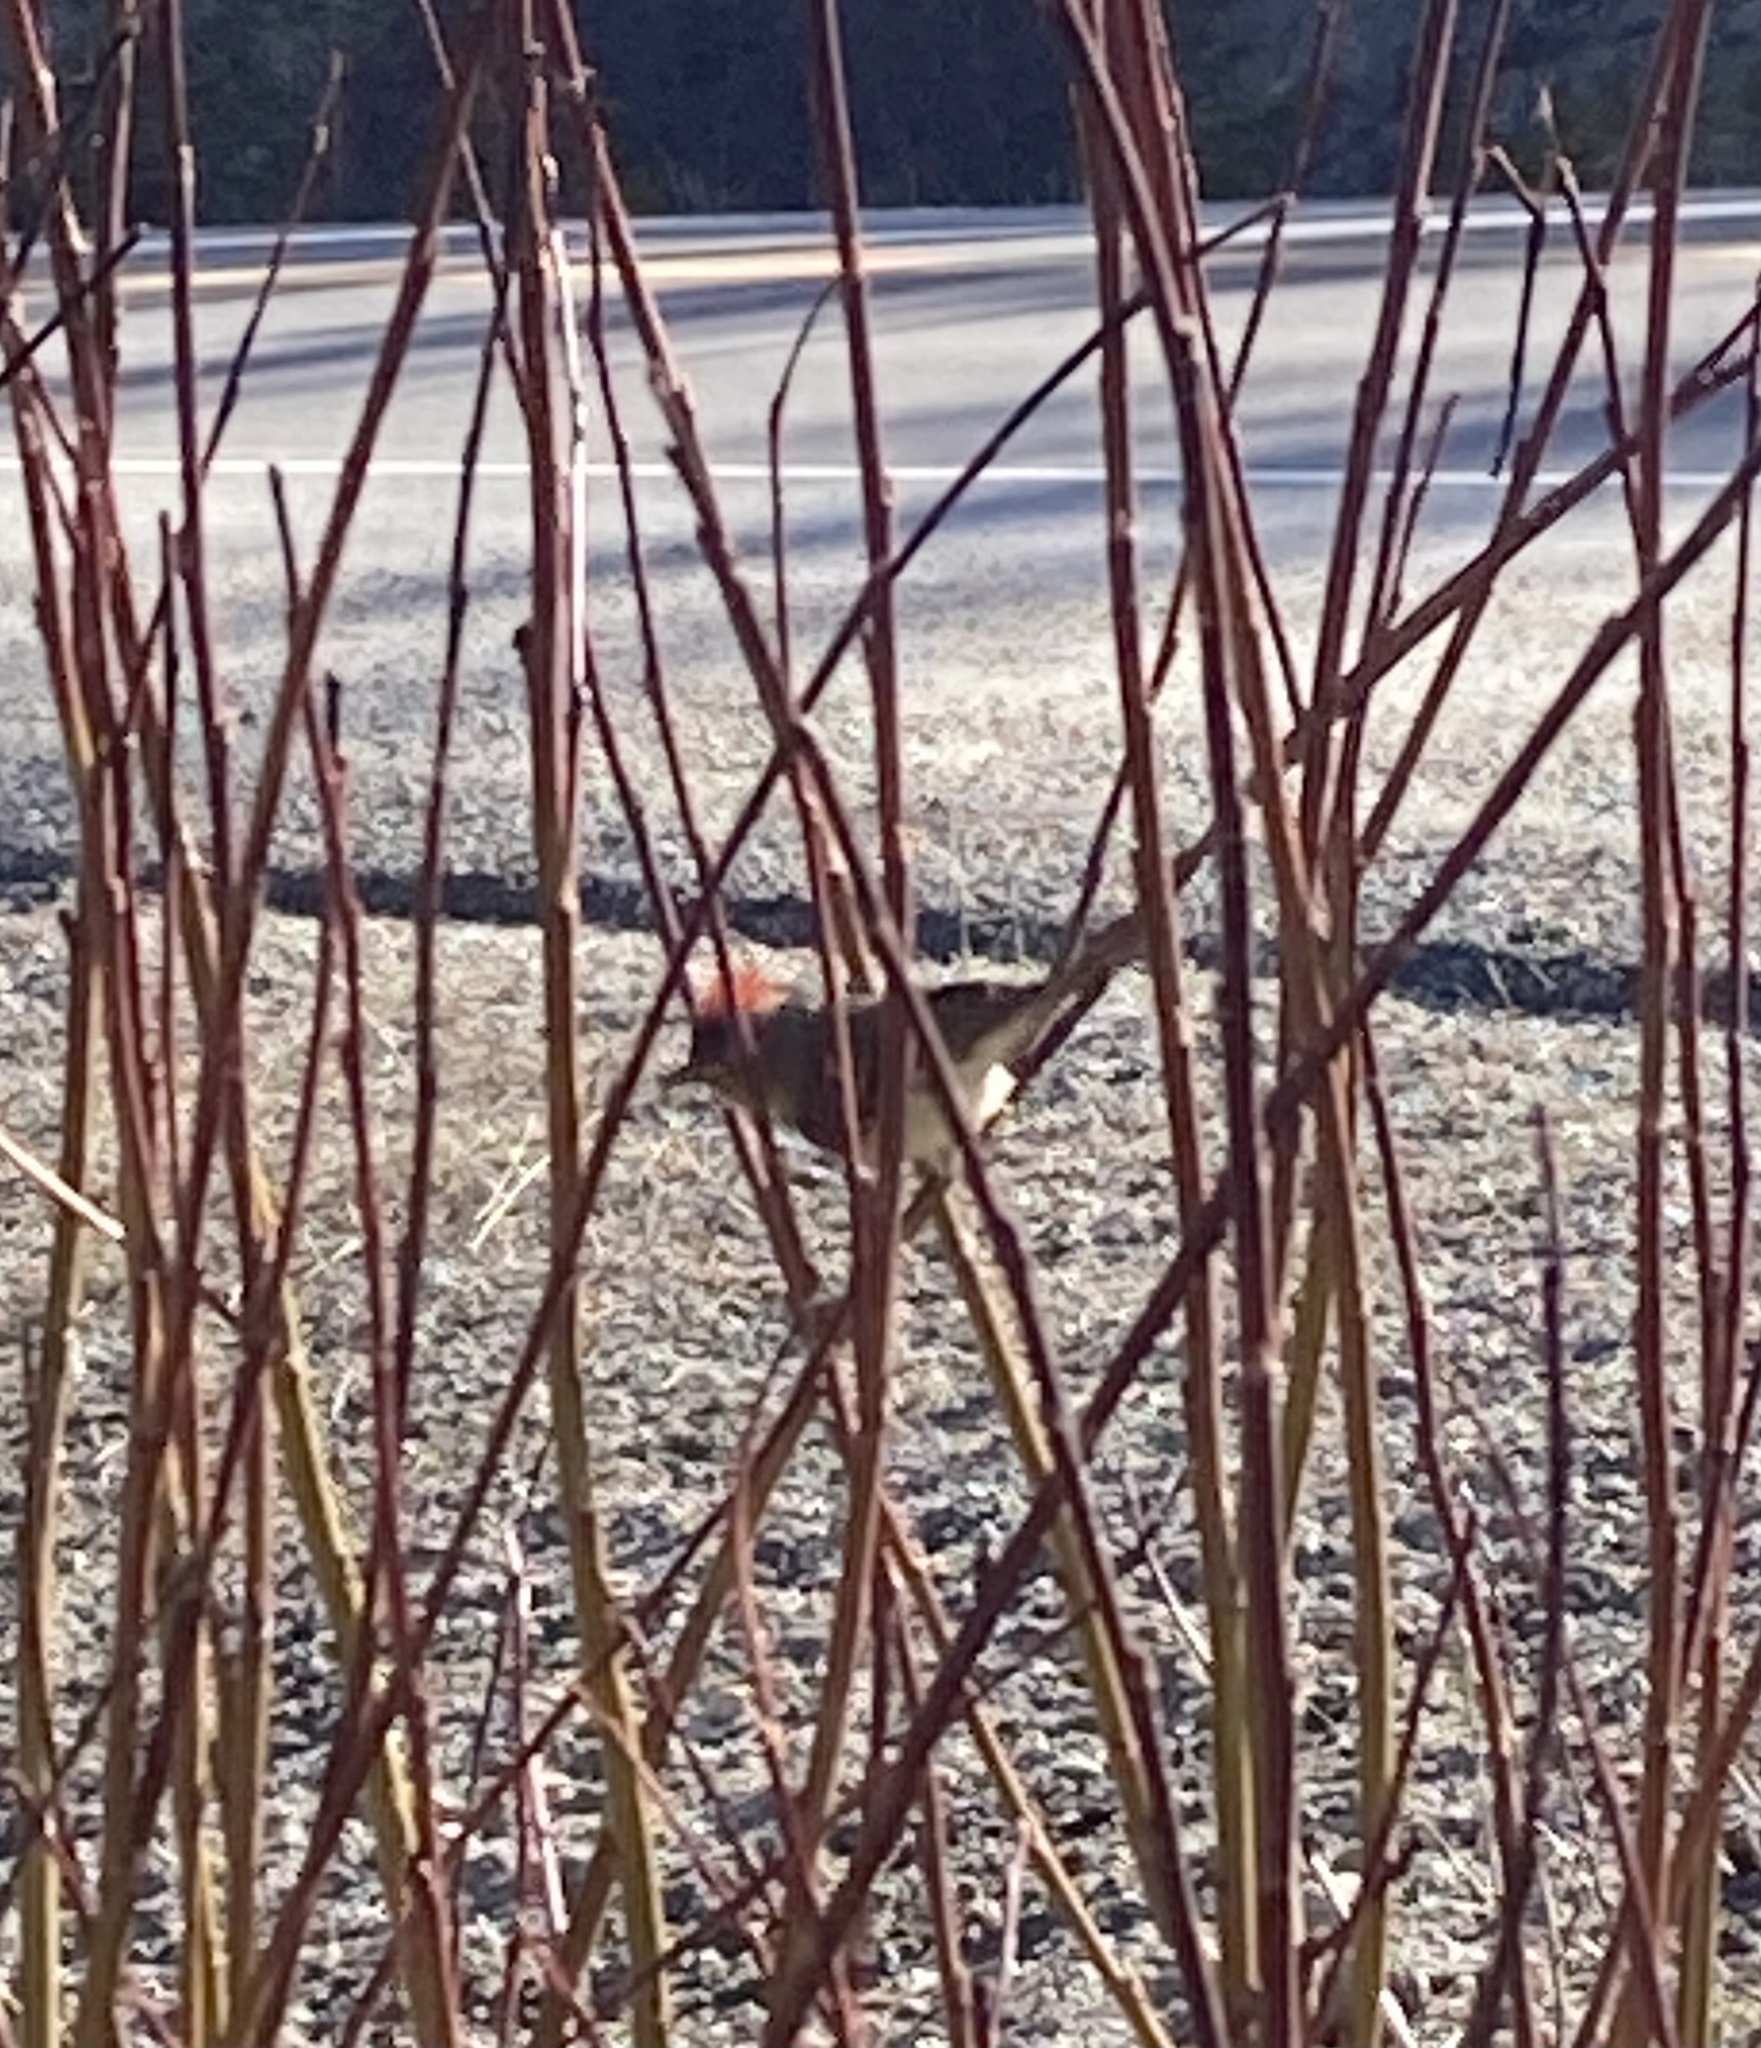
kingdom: Animalia
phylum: Chordata
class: Aves
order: Passeriformes
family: Regulidae
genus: Regulus
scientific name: Regulus calendula
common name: Ruby-crowned kinglet
